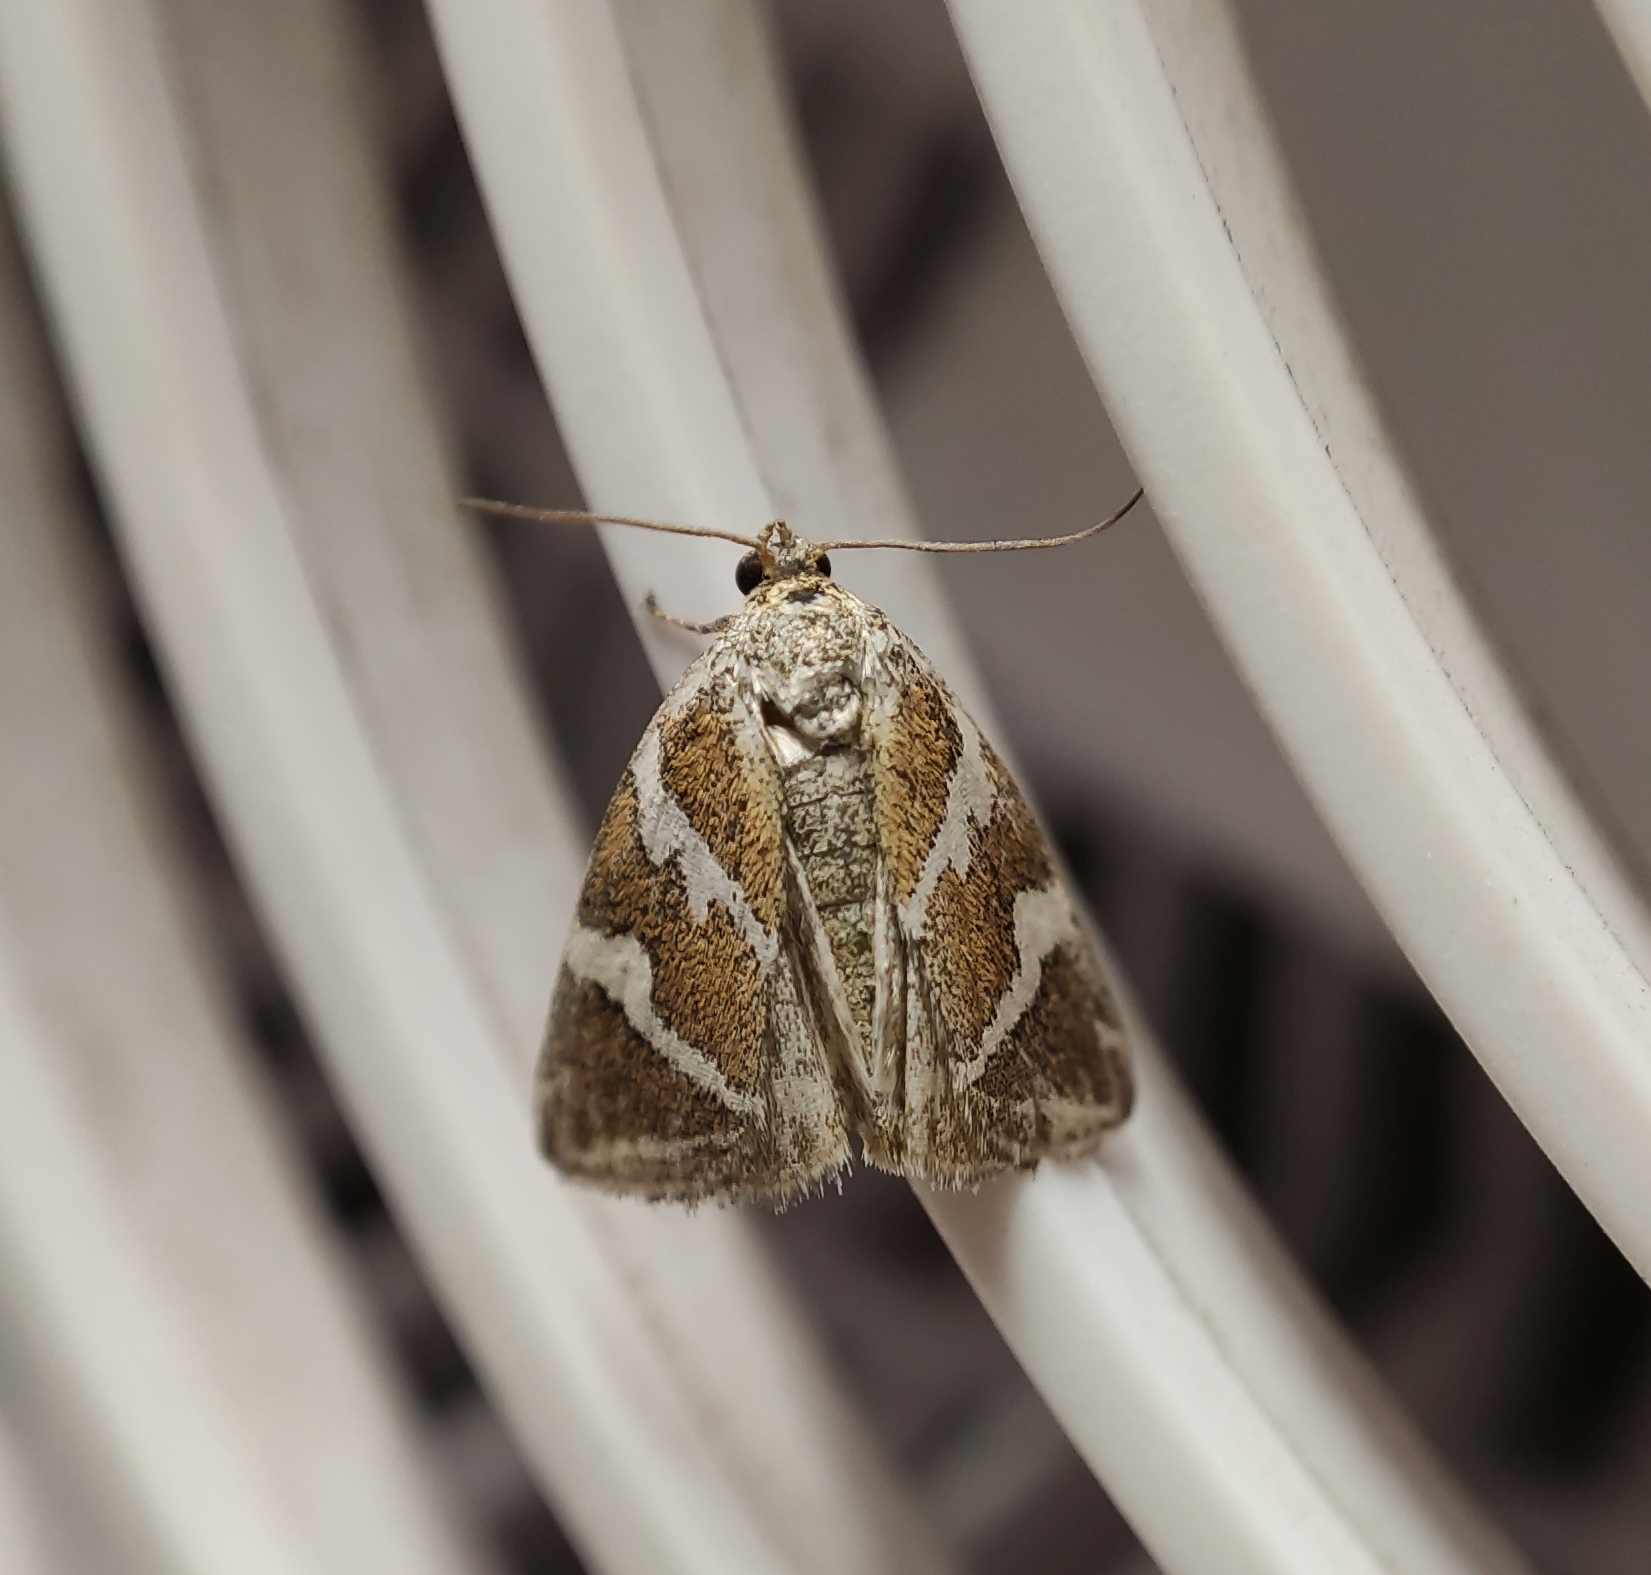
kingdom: Animalia
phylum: Arthropoda
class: Insecta
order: Lepidoptera
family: Noctuidae
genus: Deltote
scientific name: Deltote bankiana
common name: Silver barred
